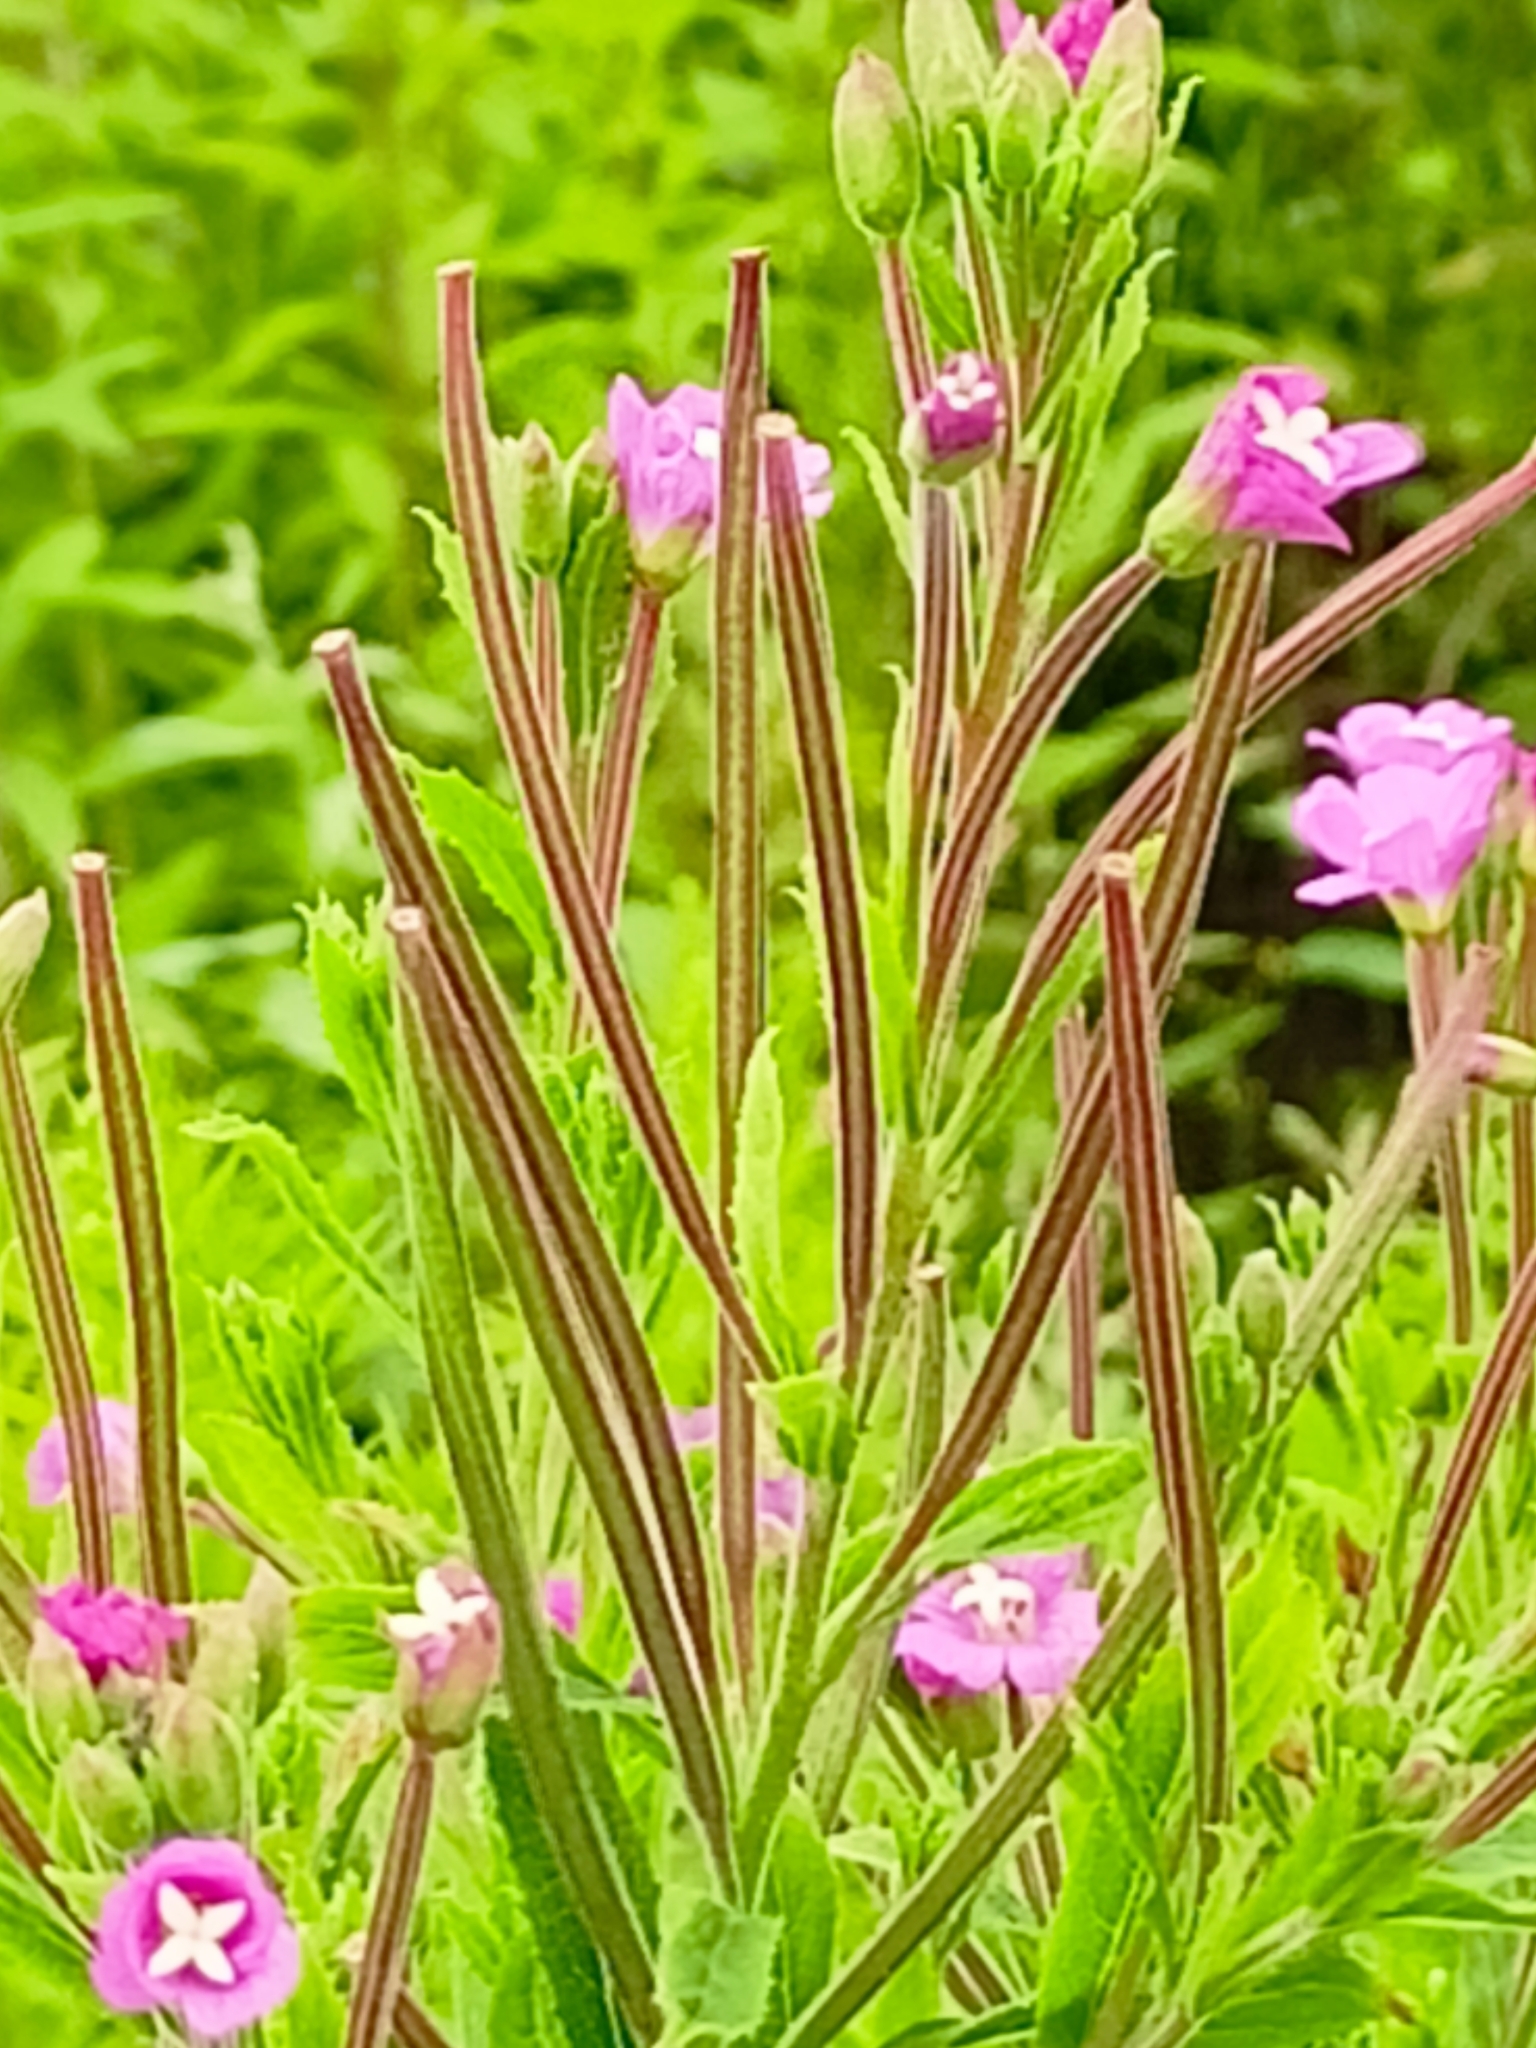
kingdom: Plantae
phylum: Tracheophyta
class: Magnoliopsida
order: Myrtales
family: Onagraceae
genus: Epilobium
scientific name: Epilobium hirsutum
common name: Great willowherb
